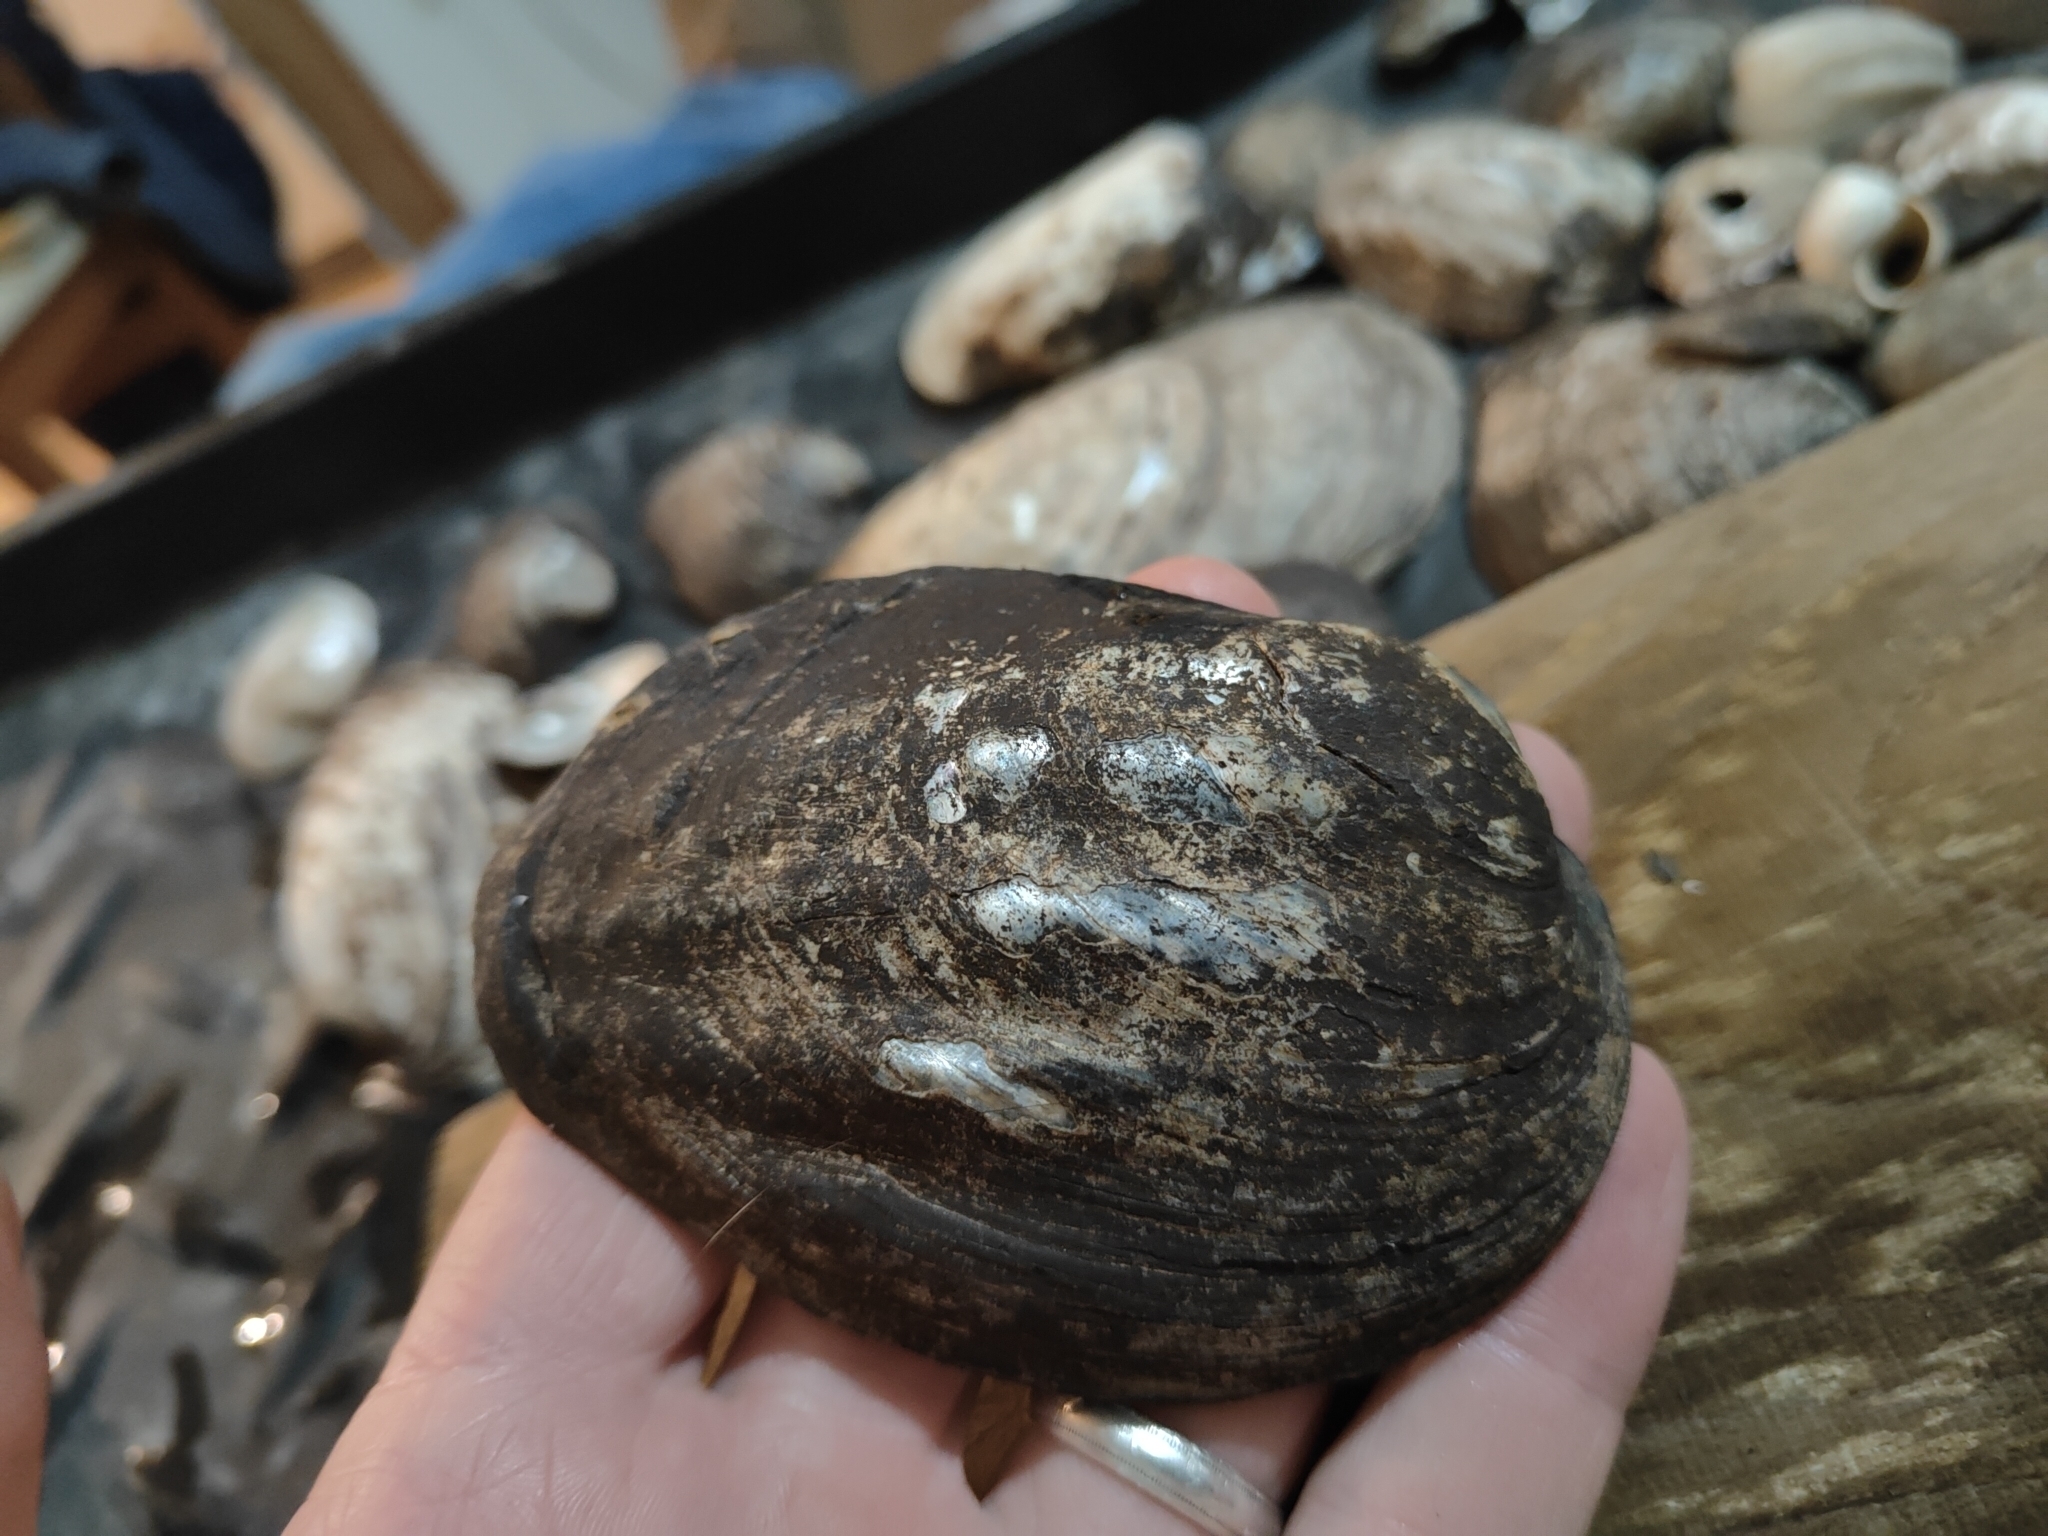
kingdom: Animalia
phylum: Mollusca
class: Bivalvia
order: Unionida
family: Unionidae
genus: Amblema
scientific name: Amblema plicata
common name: Threeridge
